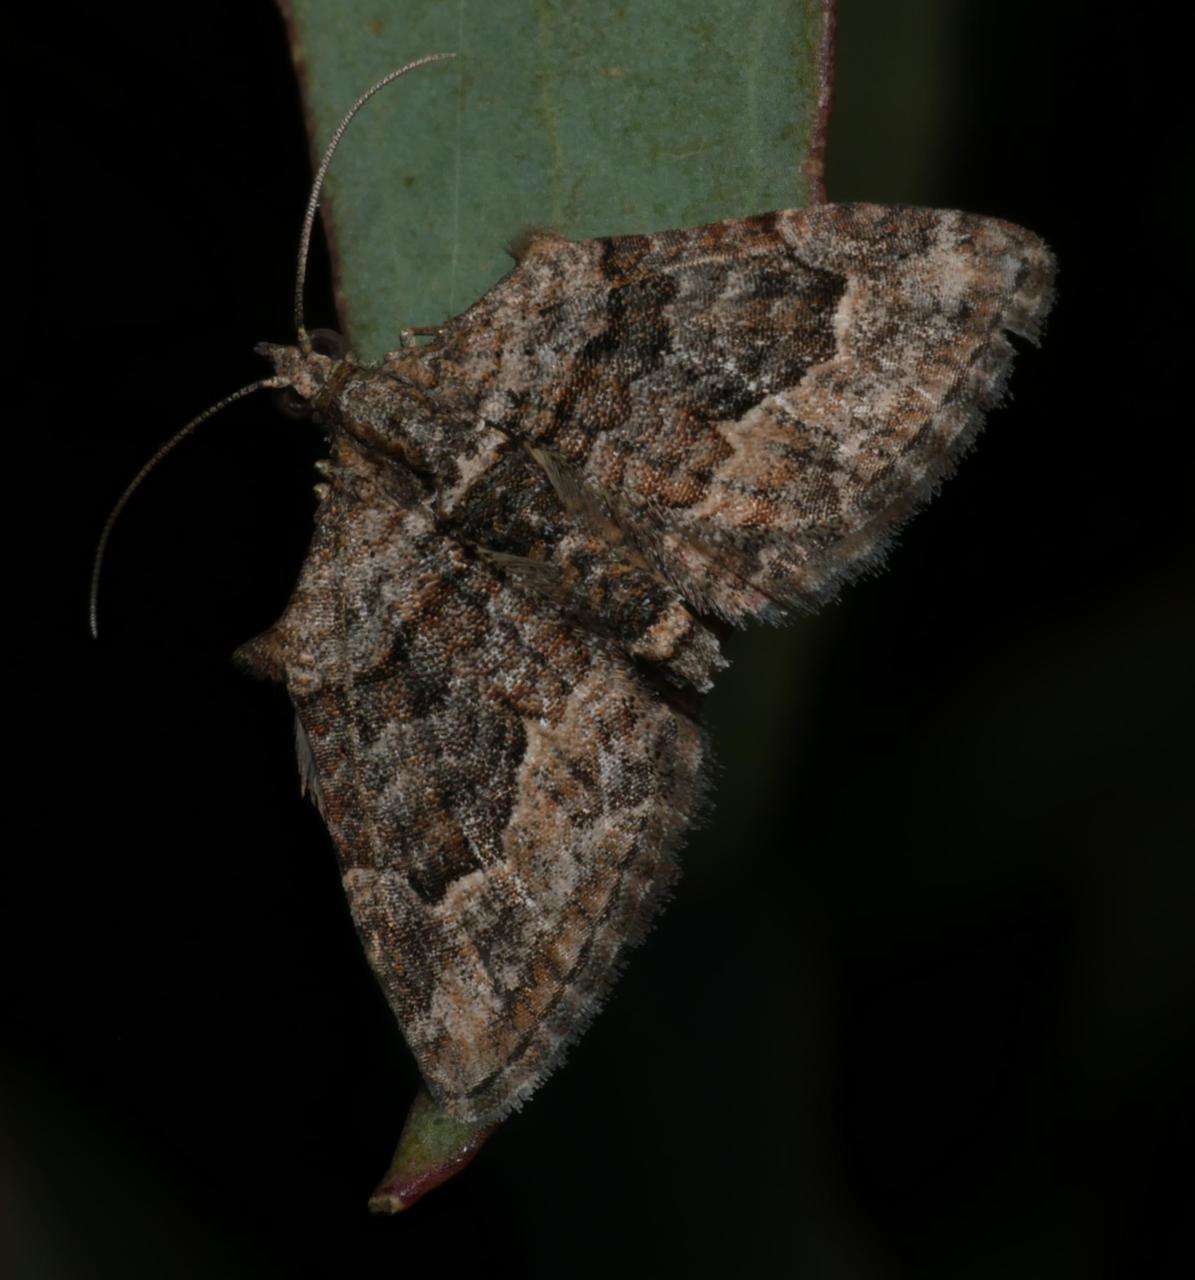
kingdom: Animalia
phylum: Arthropoda
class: Insecta
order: Lepidoptera
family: Geometridae
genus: Phrissogonus
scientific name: Phrissogonus laticostata
